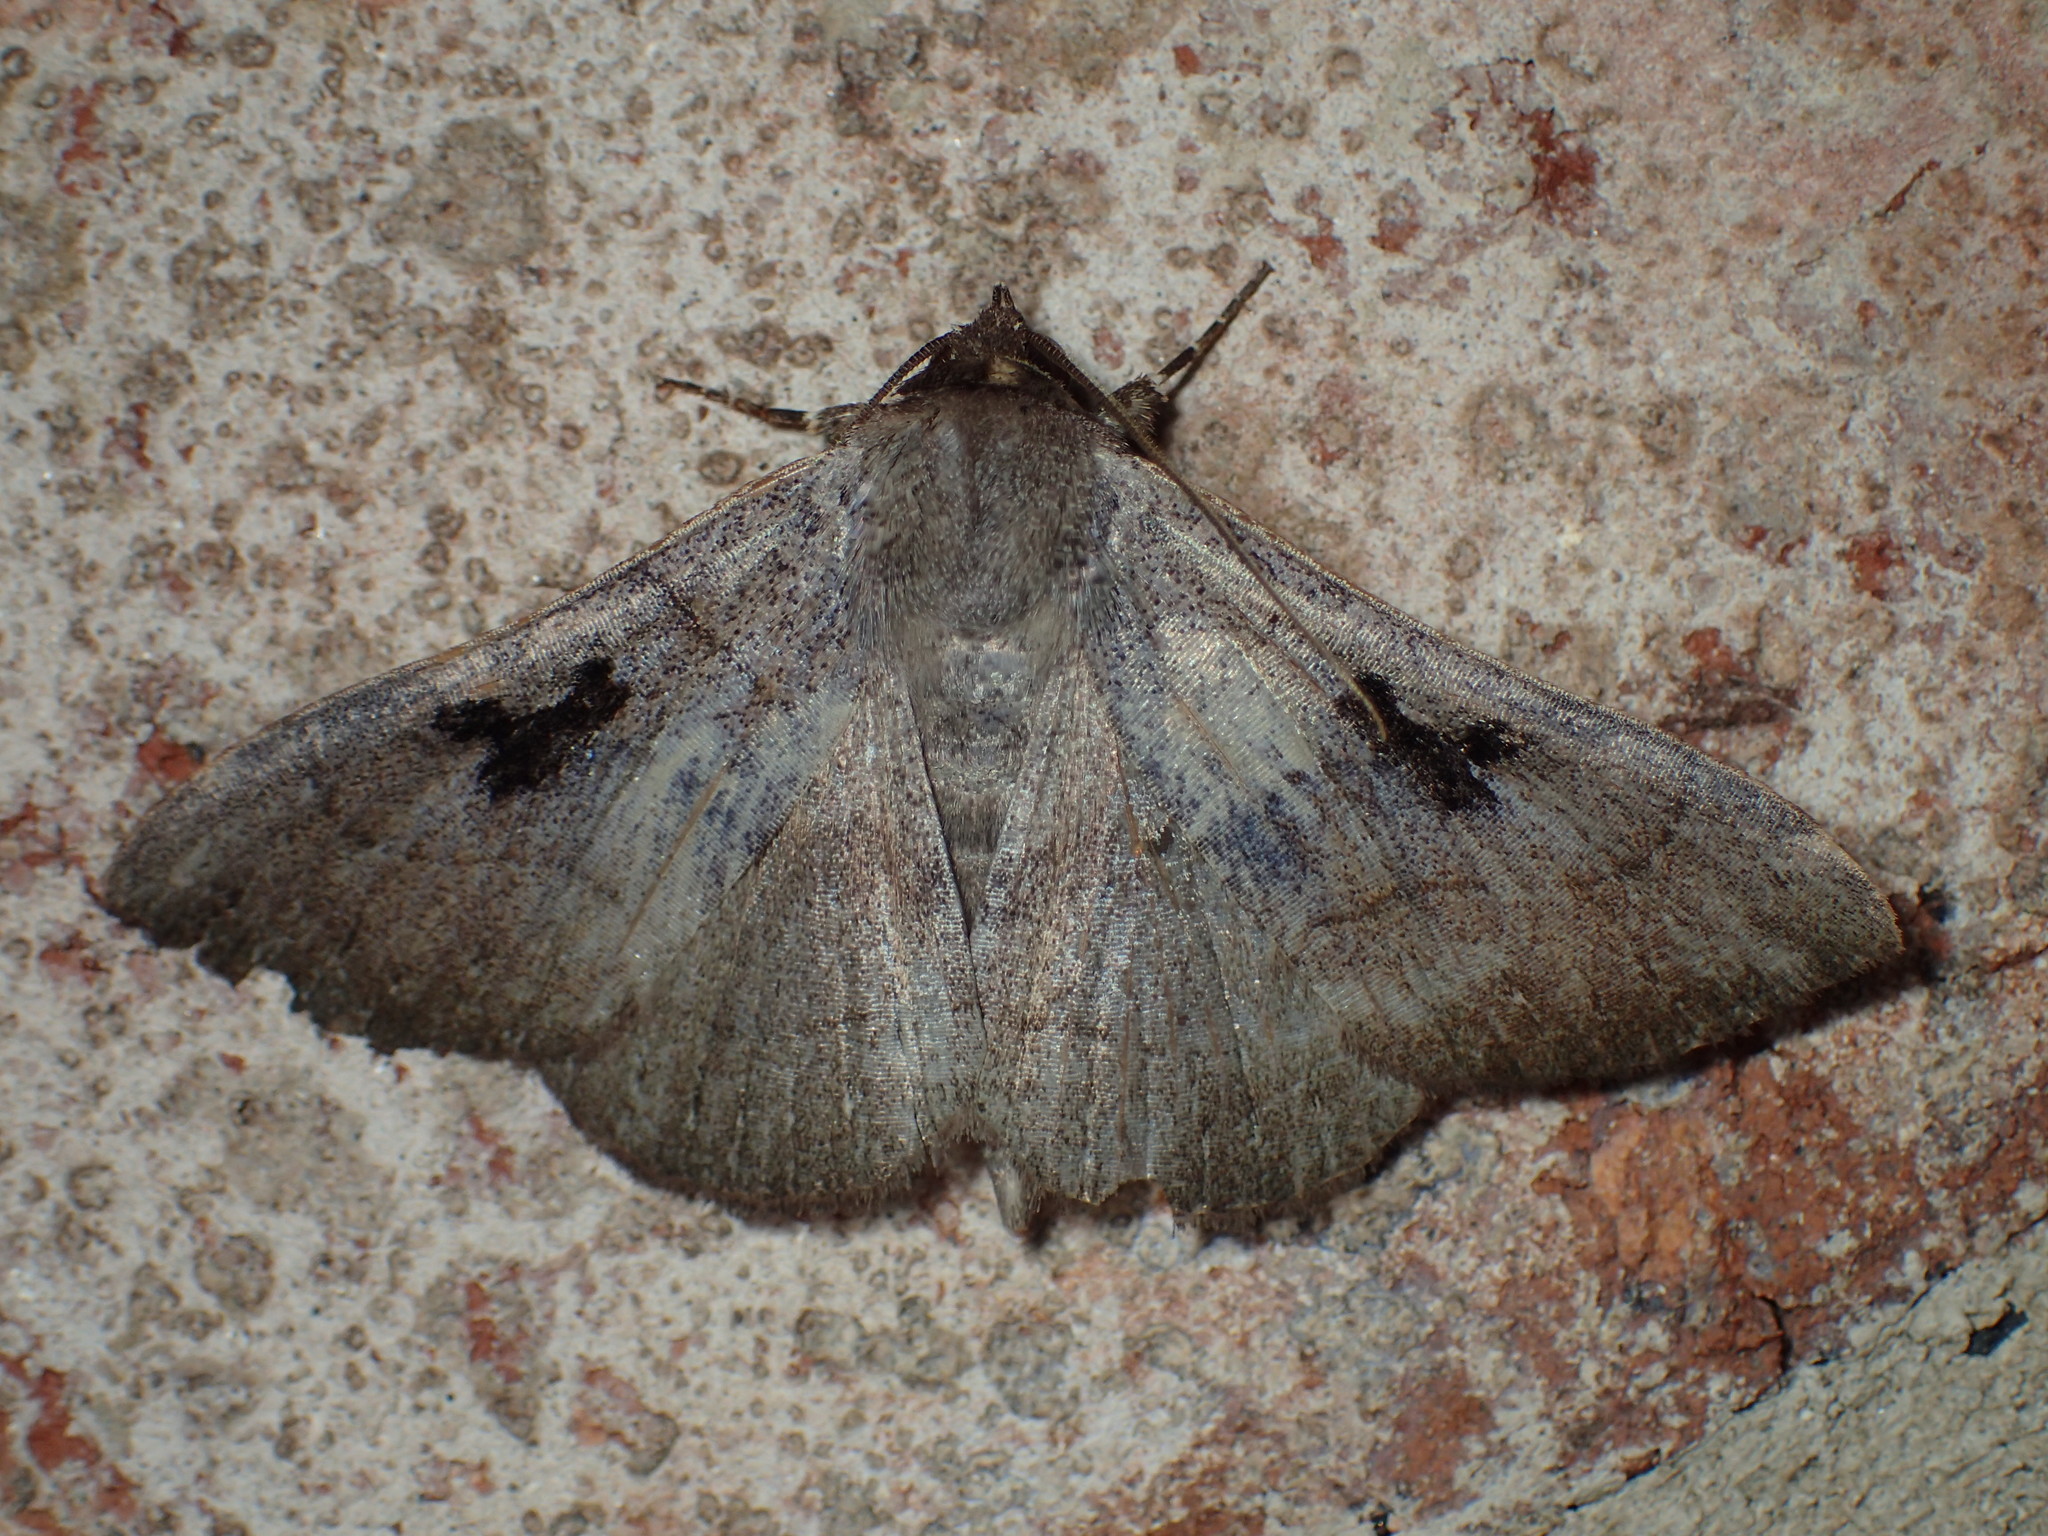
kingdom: Animalia
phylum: Arthropoda
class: Insecta
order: Lepidoptera
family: Erebidae
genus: Panopoda
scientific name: Panopoda carneicosta
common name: Brown panopoda moth
